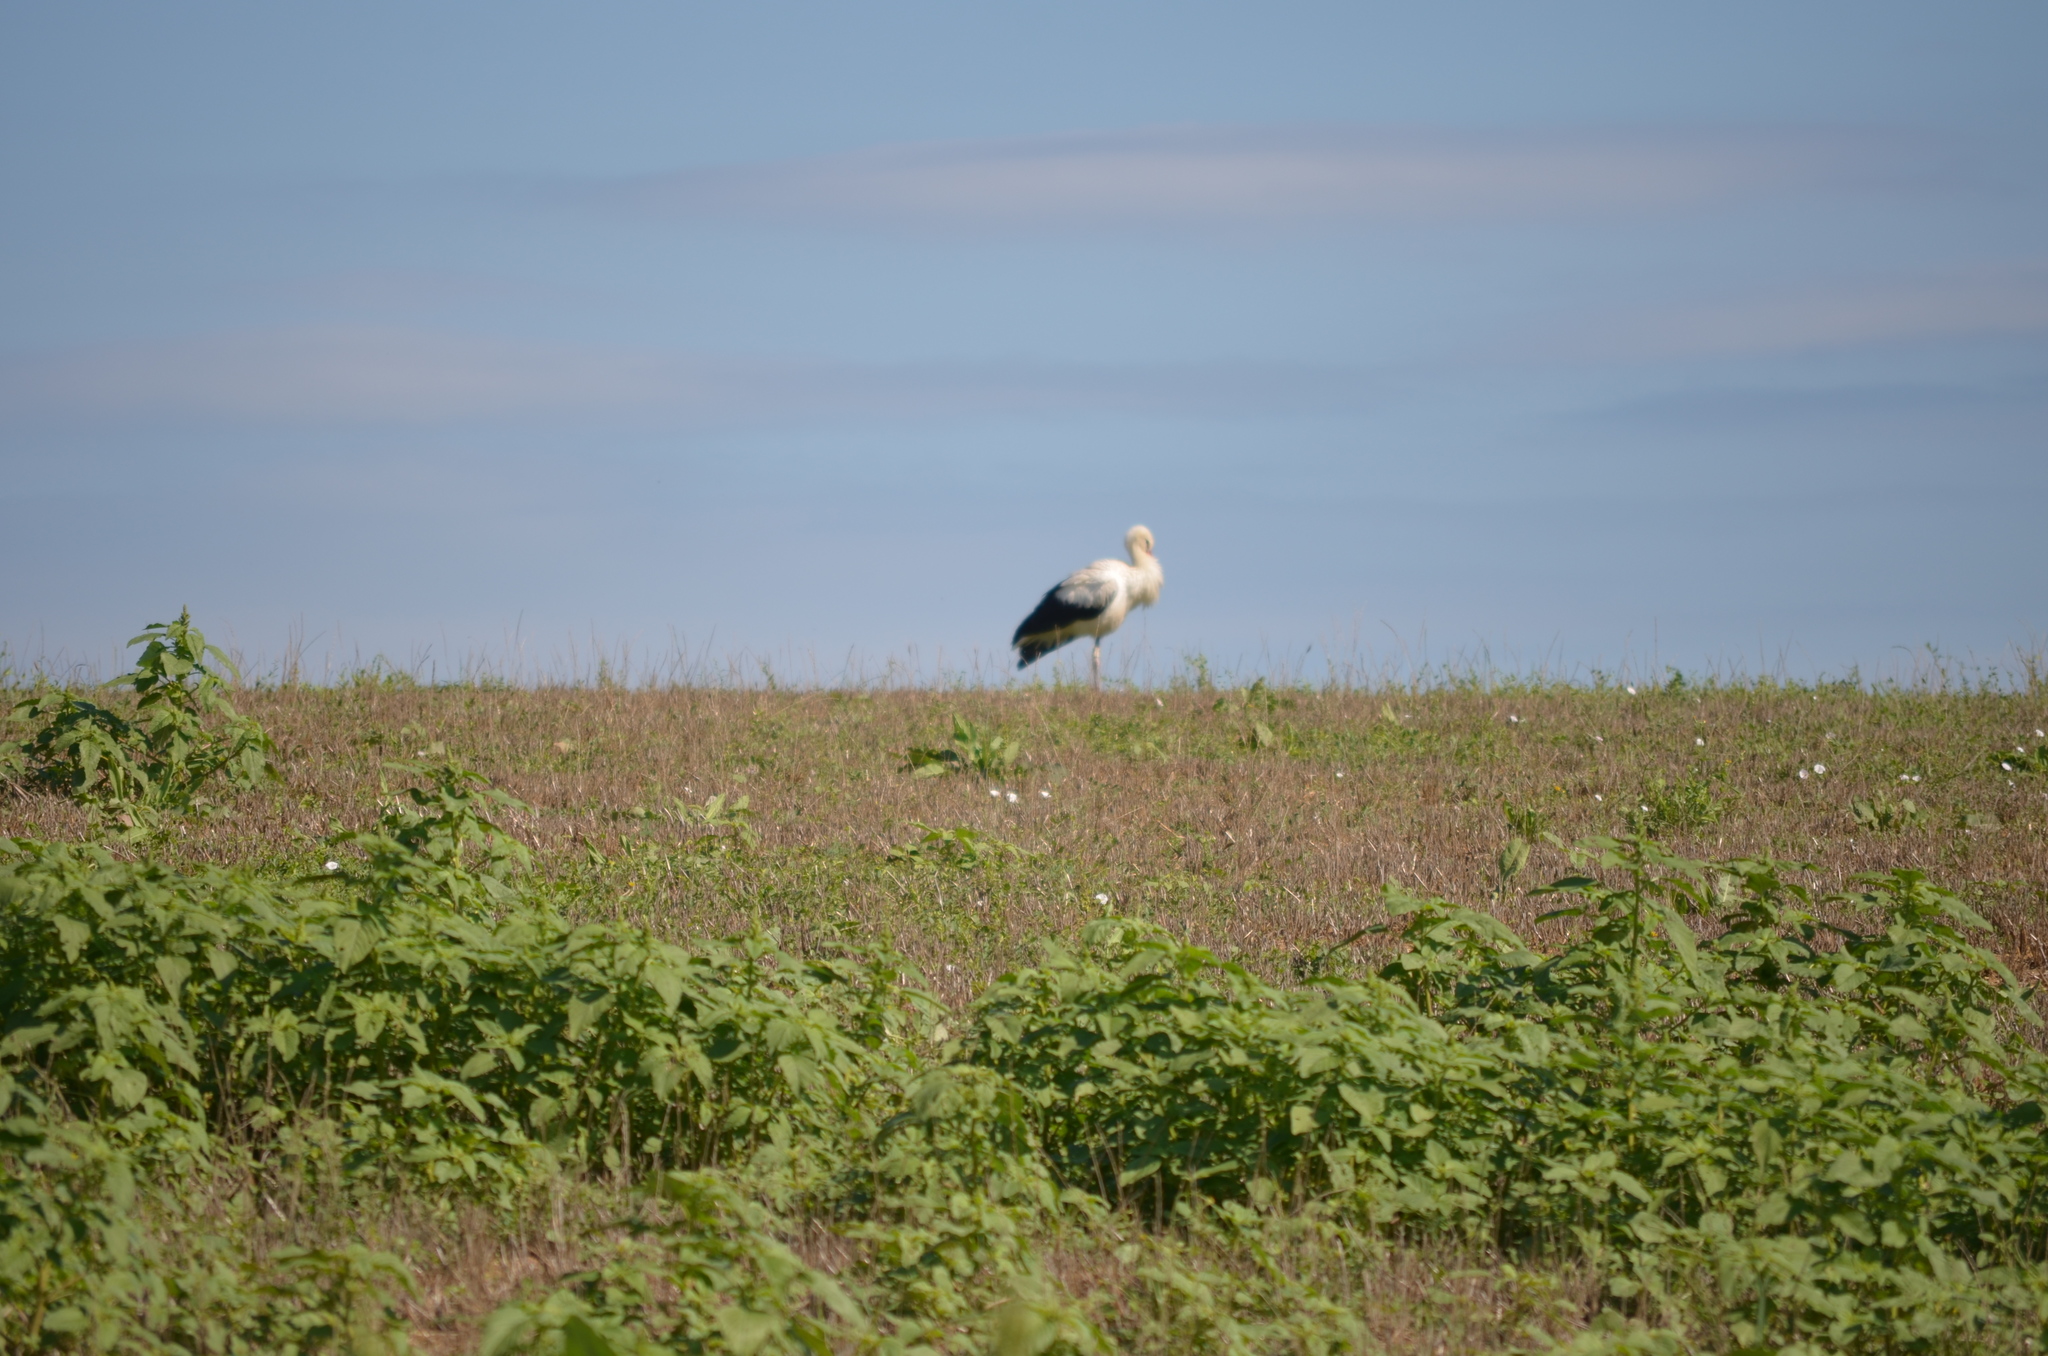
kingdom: Animalia
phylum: Chordata
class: Aves
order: Ciconiiformes
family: Ciconiidae
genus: Ciconia
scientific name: Ciconia ciconia
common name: White stork
